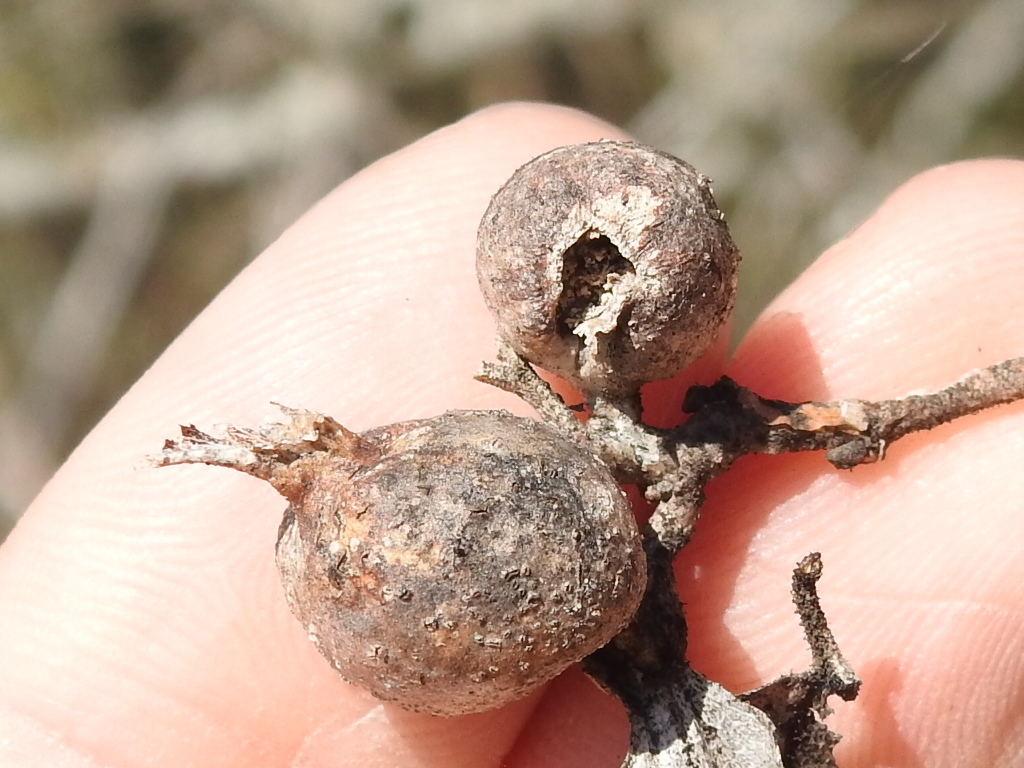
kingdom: Animalia
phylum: Arthropoda
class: Insecta
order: Hemiptera
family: Aphalaridae
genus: Pachypsylla
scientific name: Pachypsylla venusta
